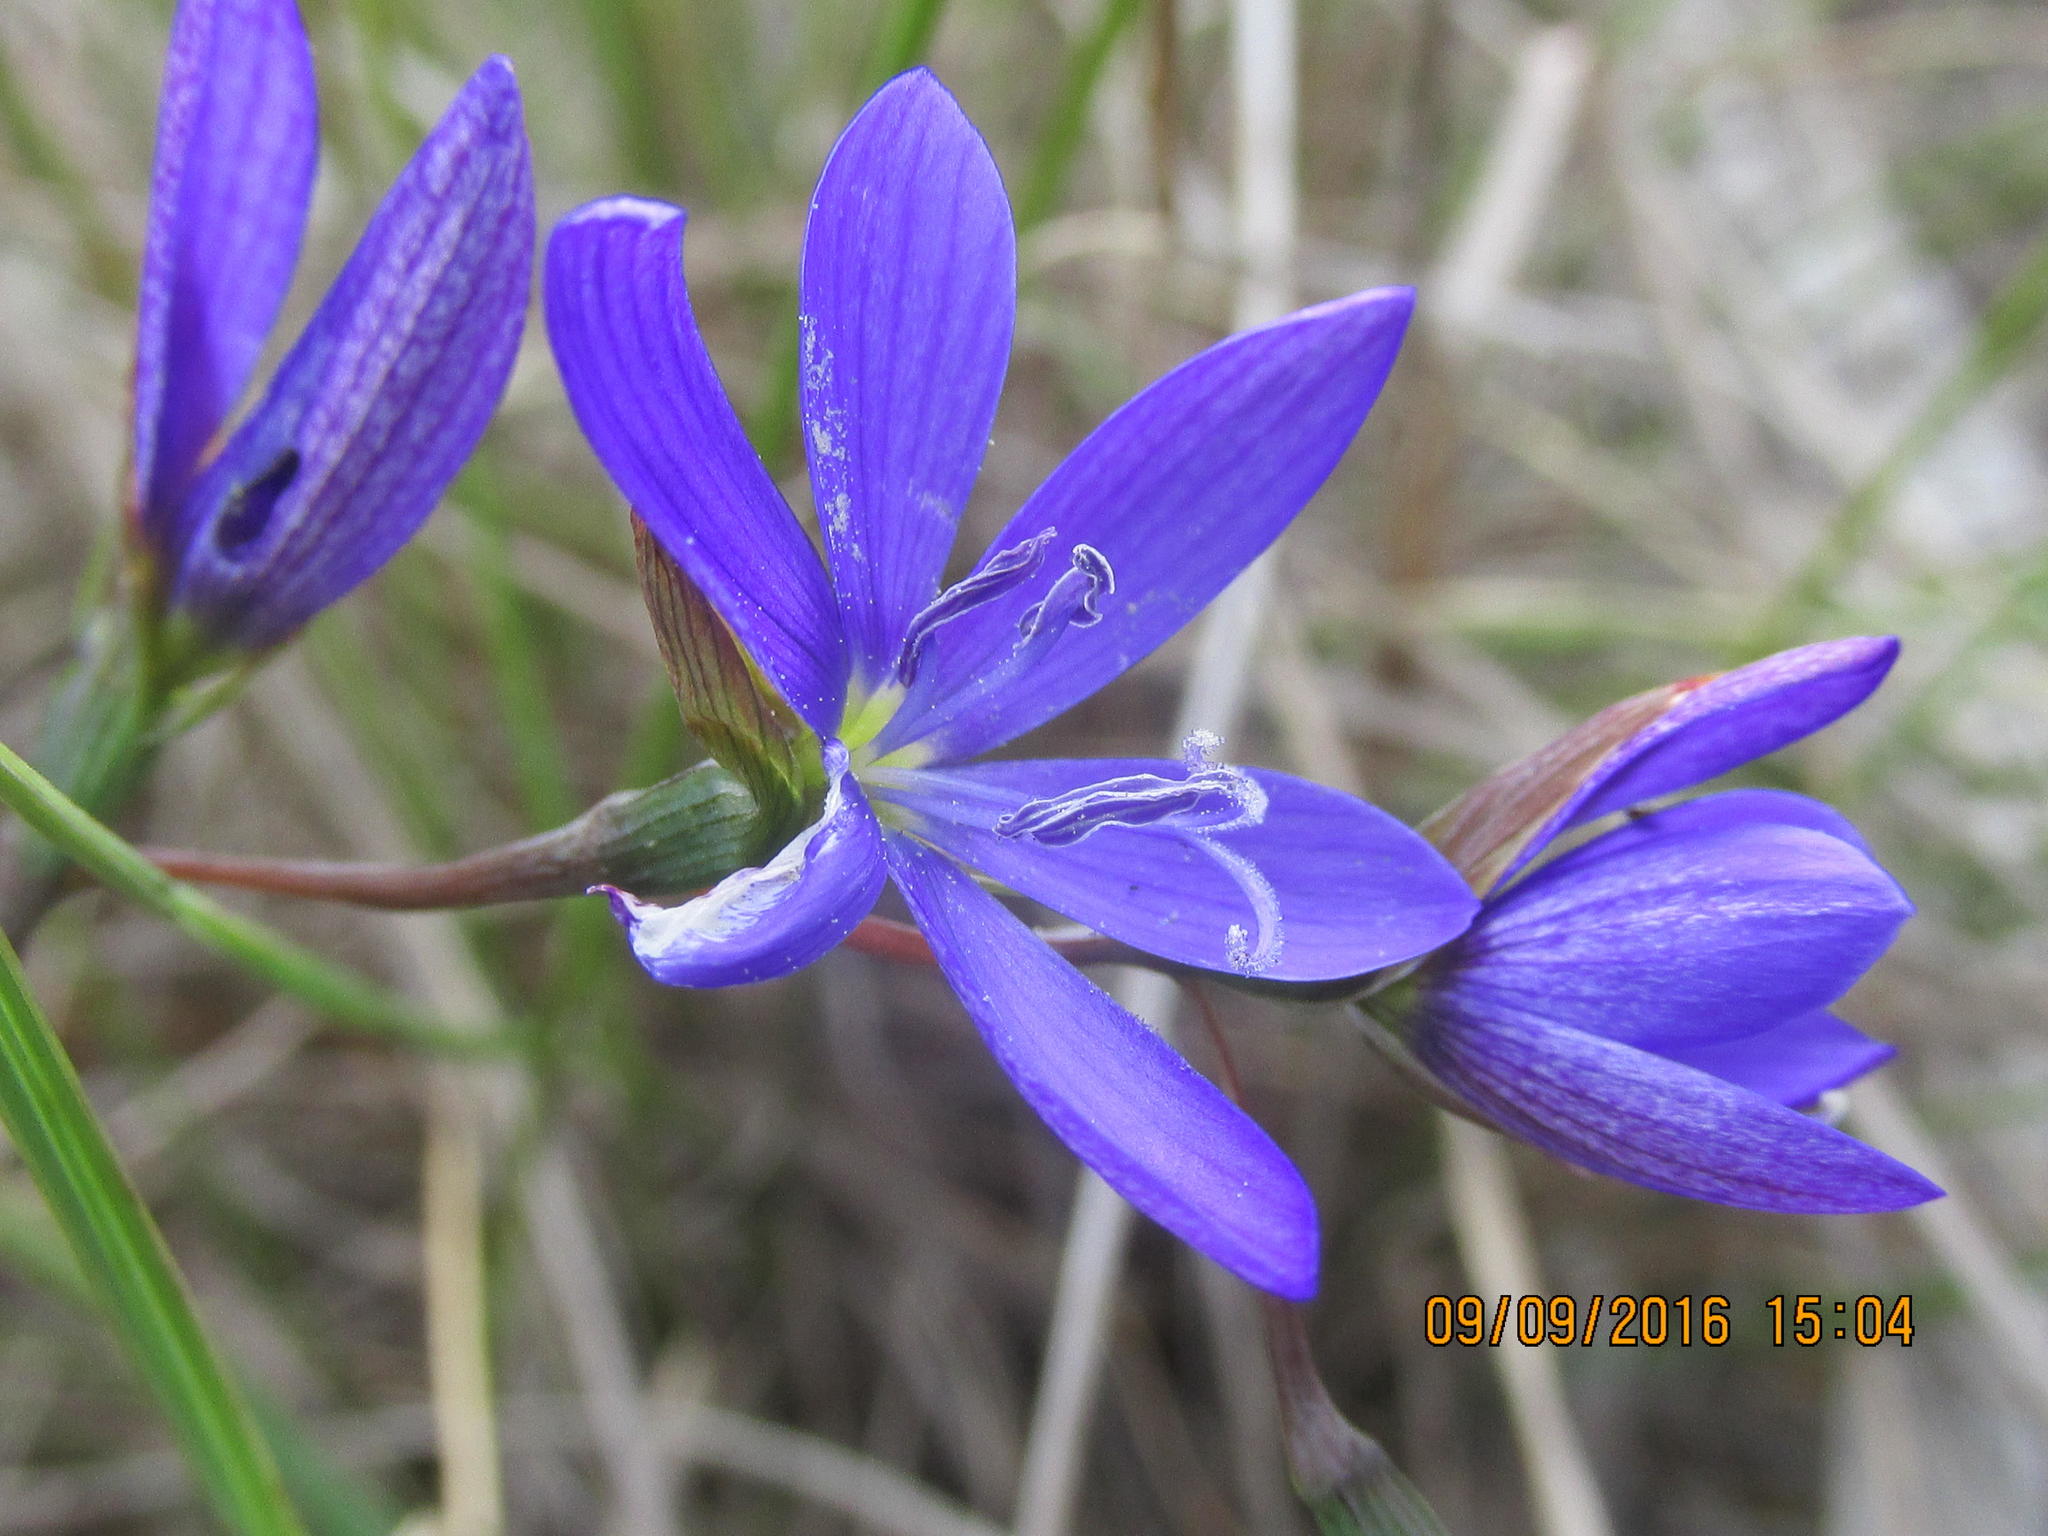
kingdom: Plantae
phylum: Tracheophyta
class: Liliopsida
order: Asparagales
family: Iridaceae
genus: Geissorhiza
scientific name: Geissorhiza aspera
